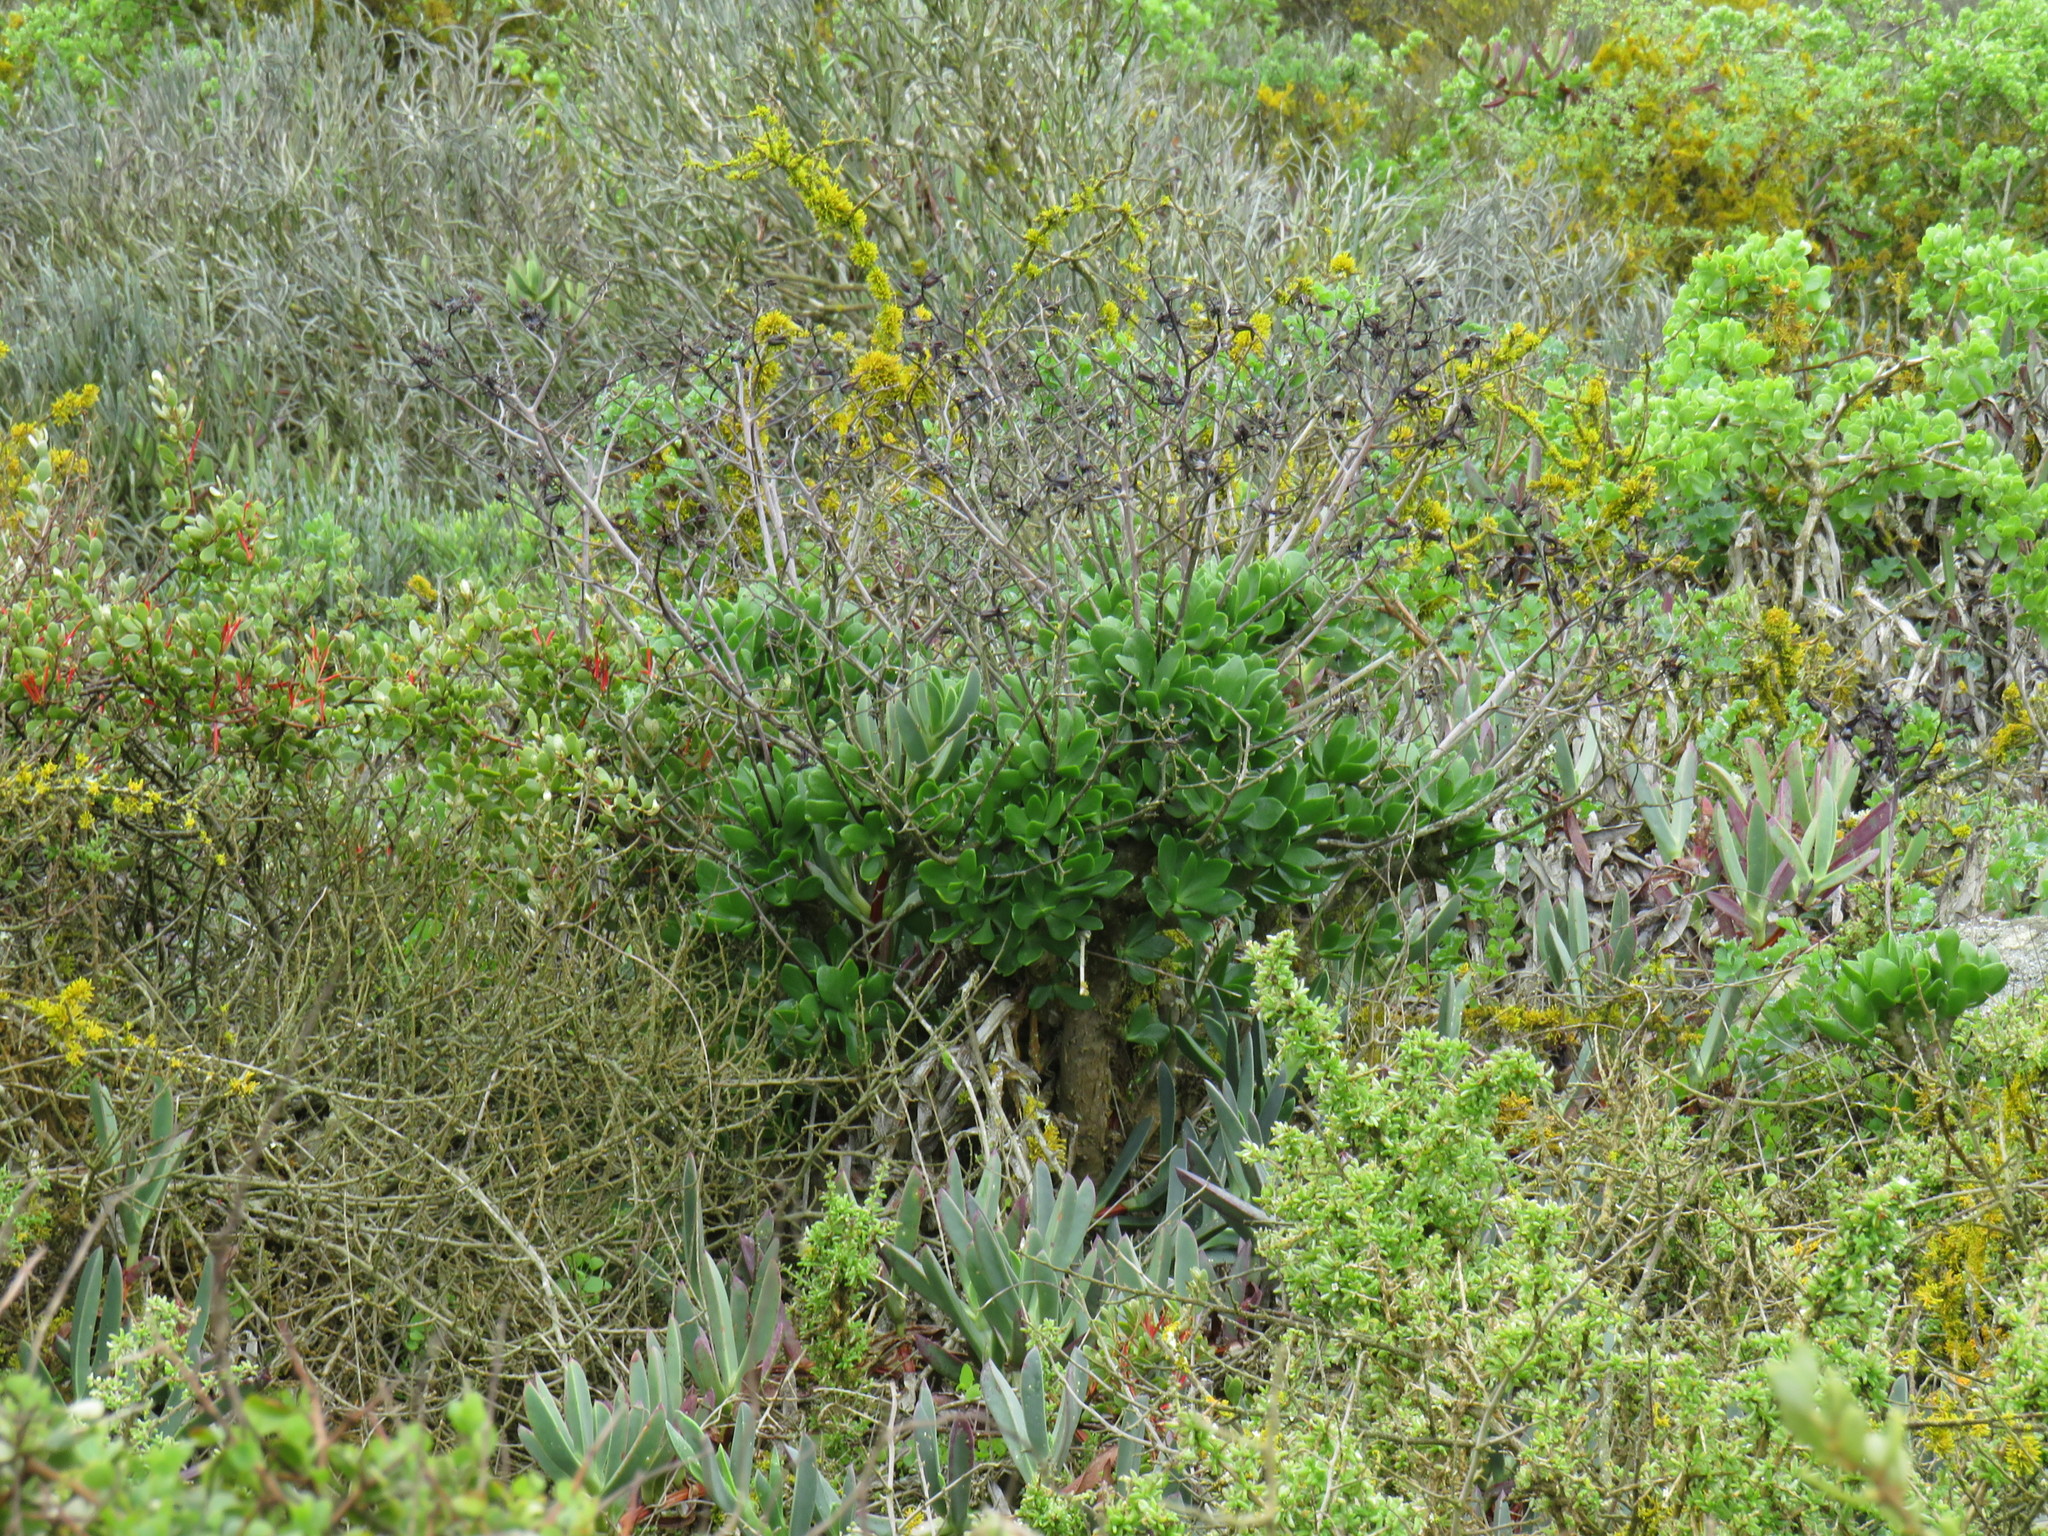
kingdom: Plantae
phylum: Tracheophyta
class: Magnoliopsida
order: Saxifragales
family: Crassulaceae
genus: Tylecodon
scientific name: Tylecodon paniculatus
